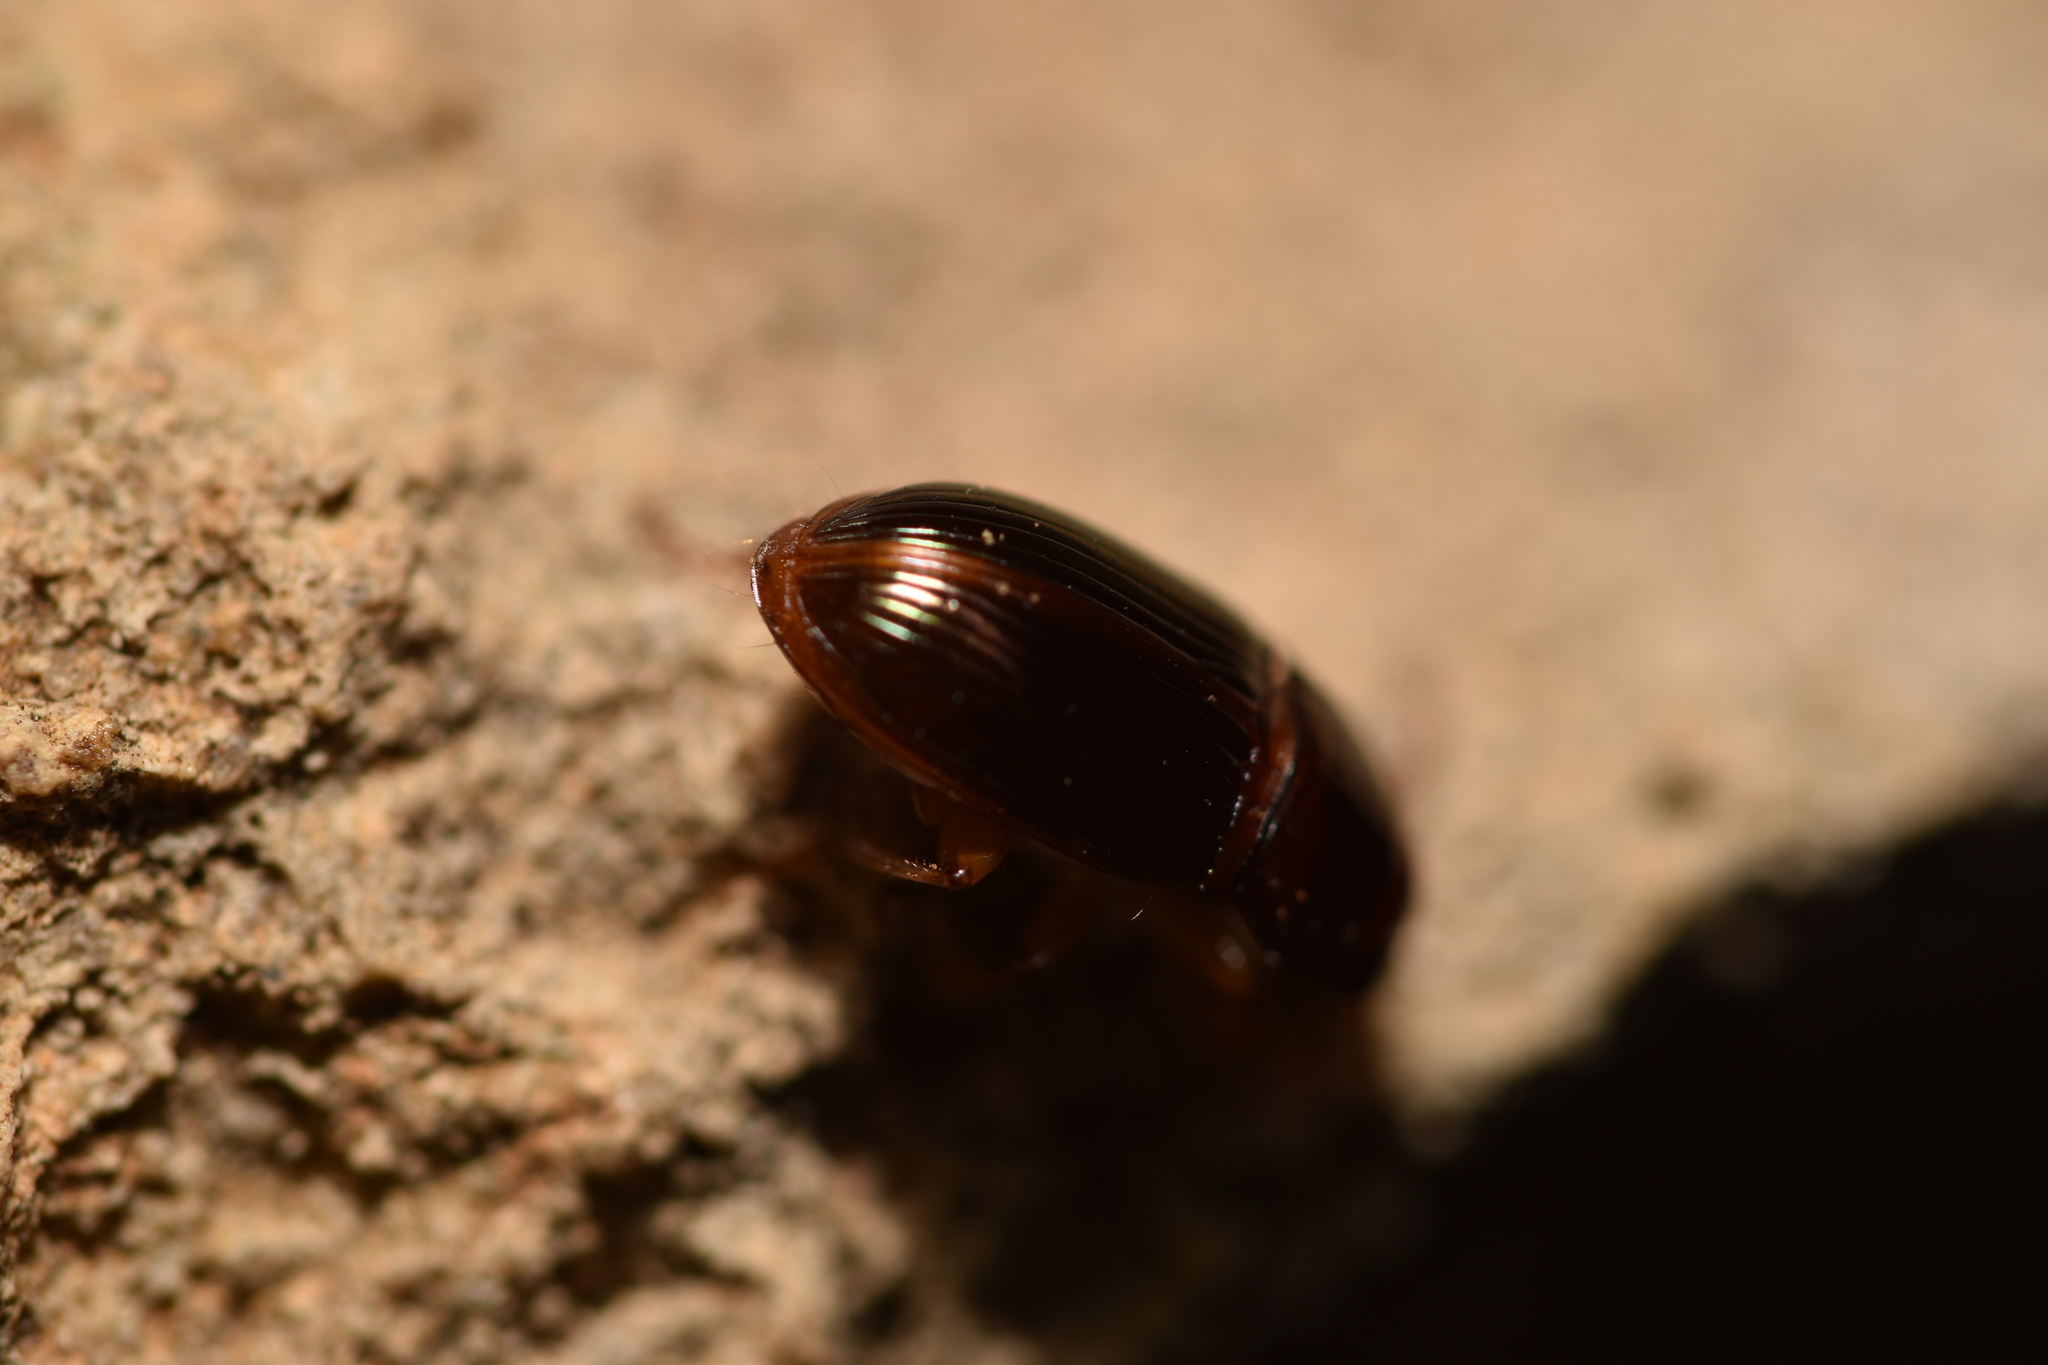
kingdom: Animalia
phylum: Arthropoda
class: Insecta
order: Coleoptera
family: Carabidae
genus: Harpalus
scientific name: Harpalus gravis
